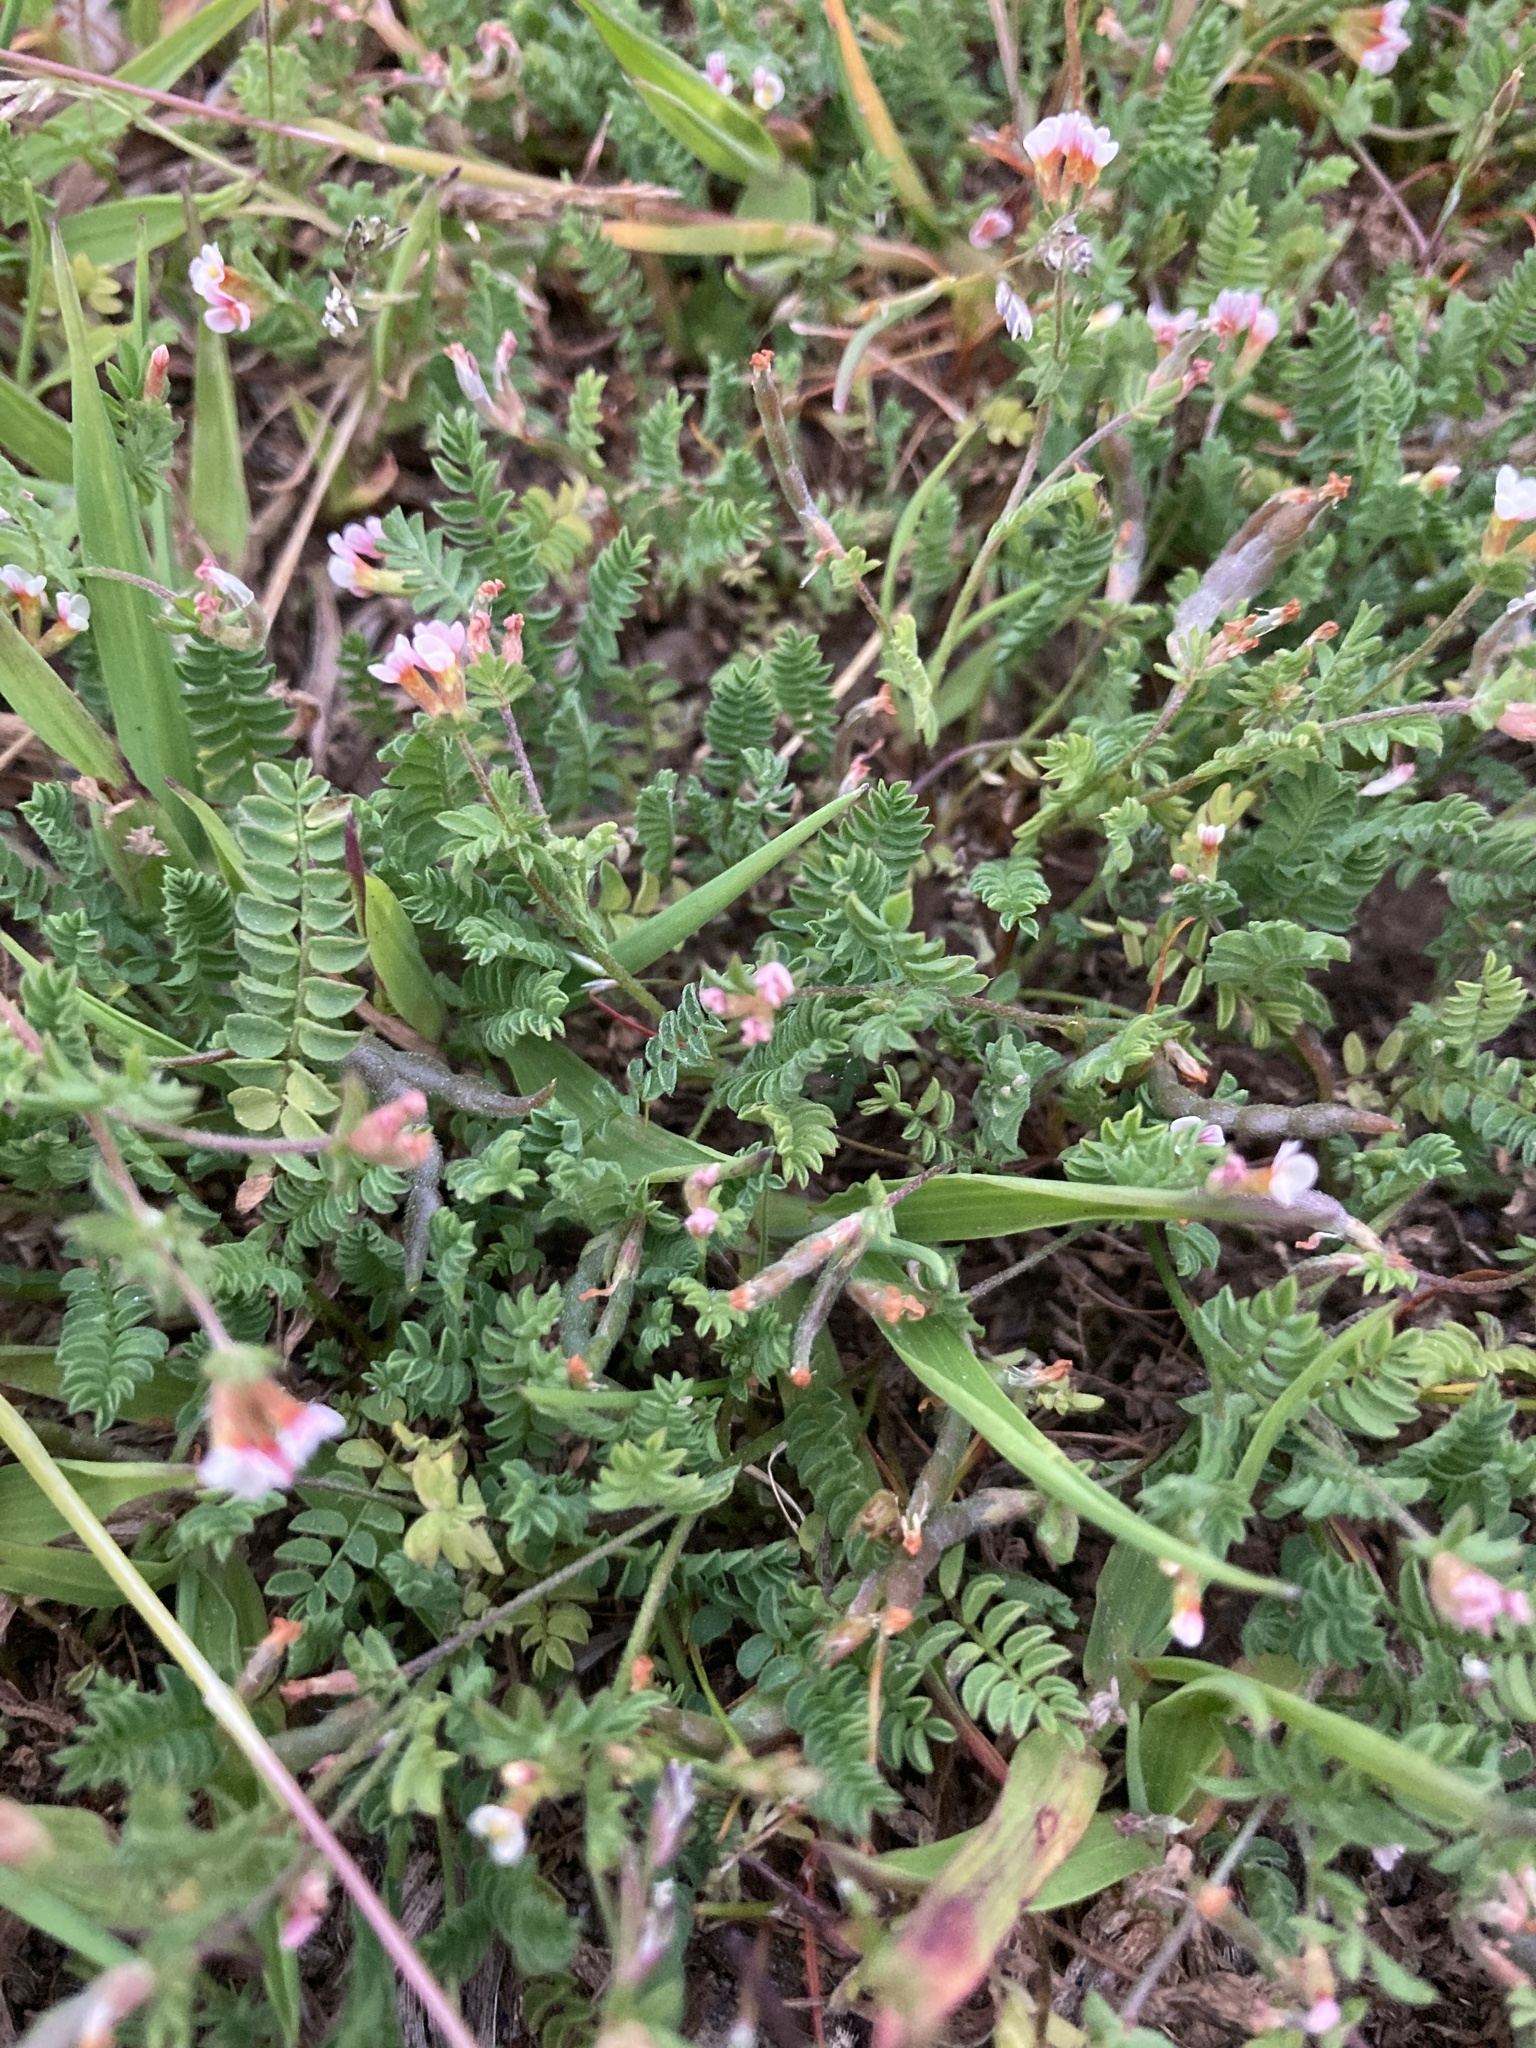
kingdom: Plantae
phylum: Tracheophyta
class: Magnoliopsida
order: Fabales
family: Fabaceae
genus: Ornithopus
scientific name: Ornithopus perpusillus
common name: Bird's-foot
